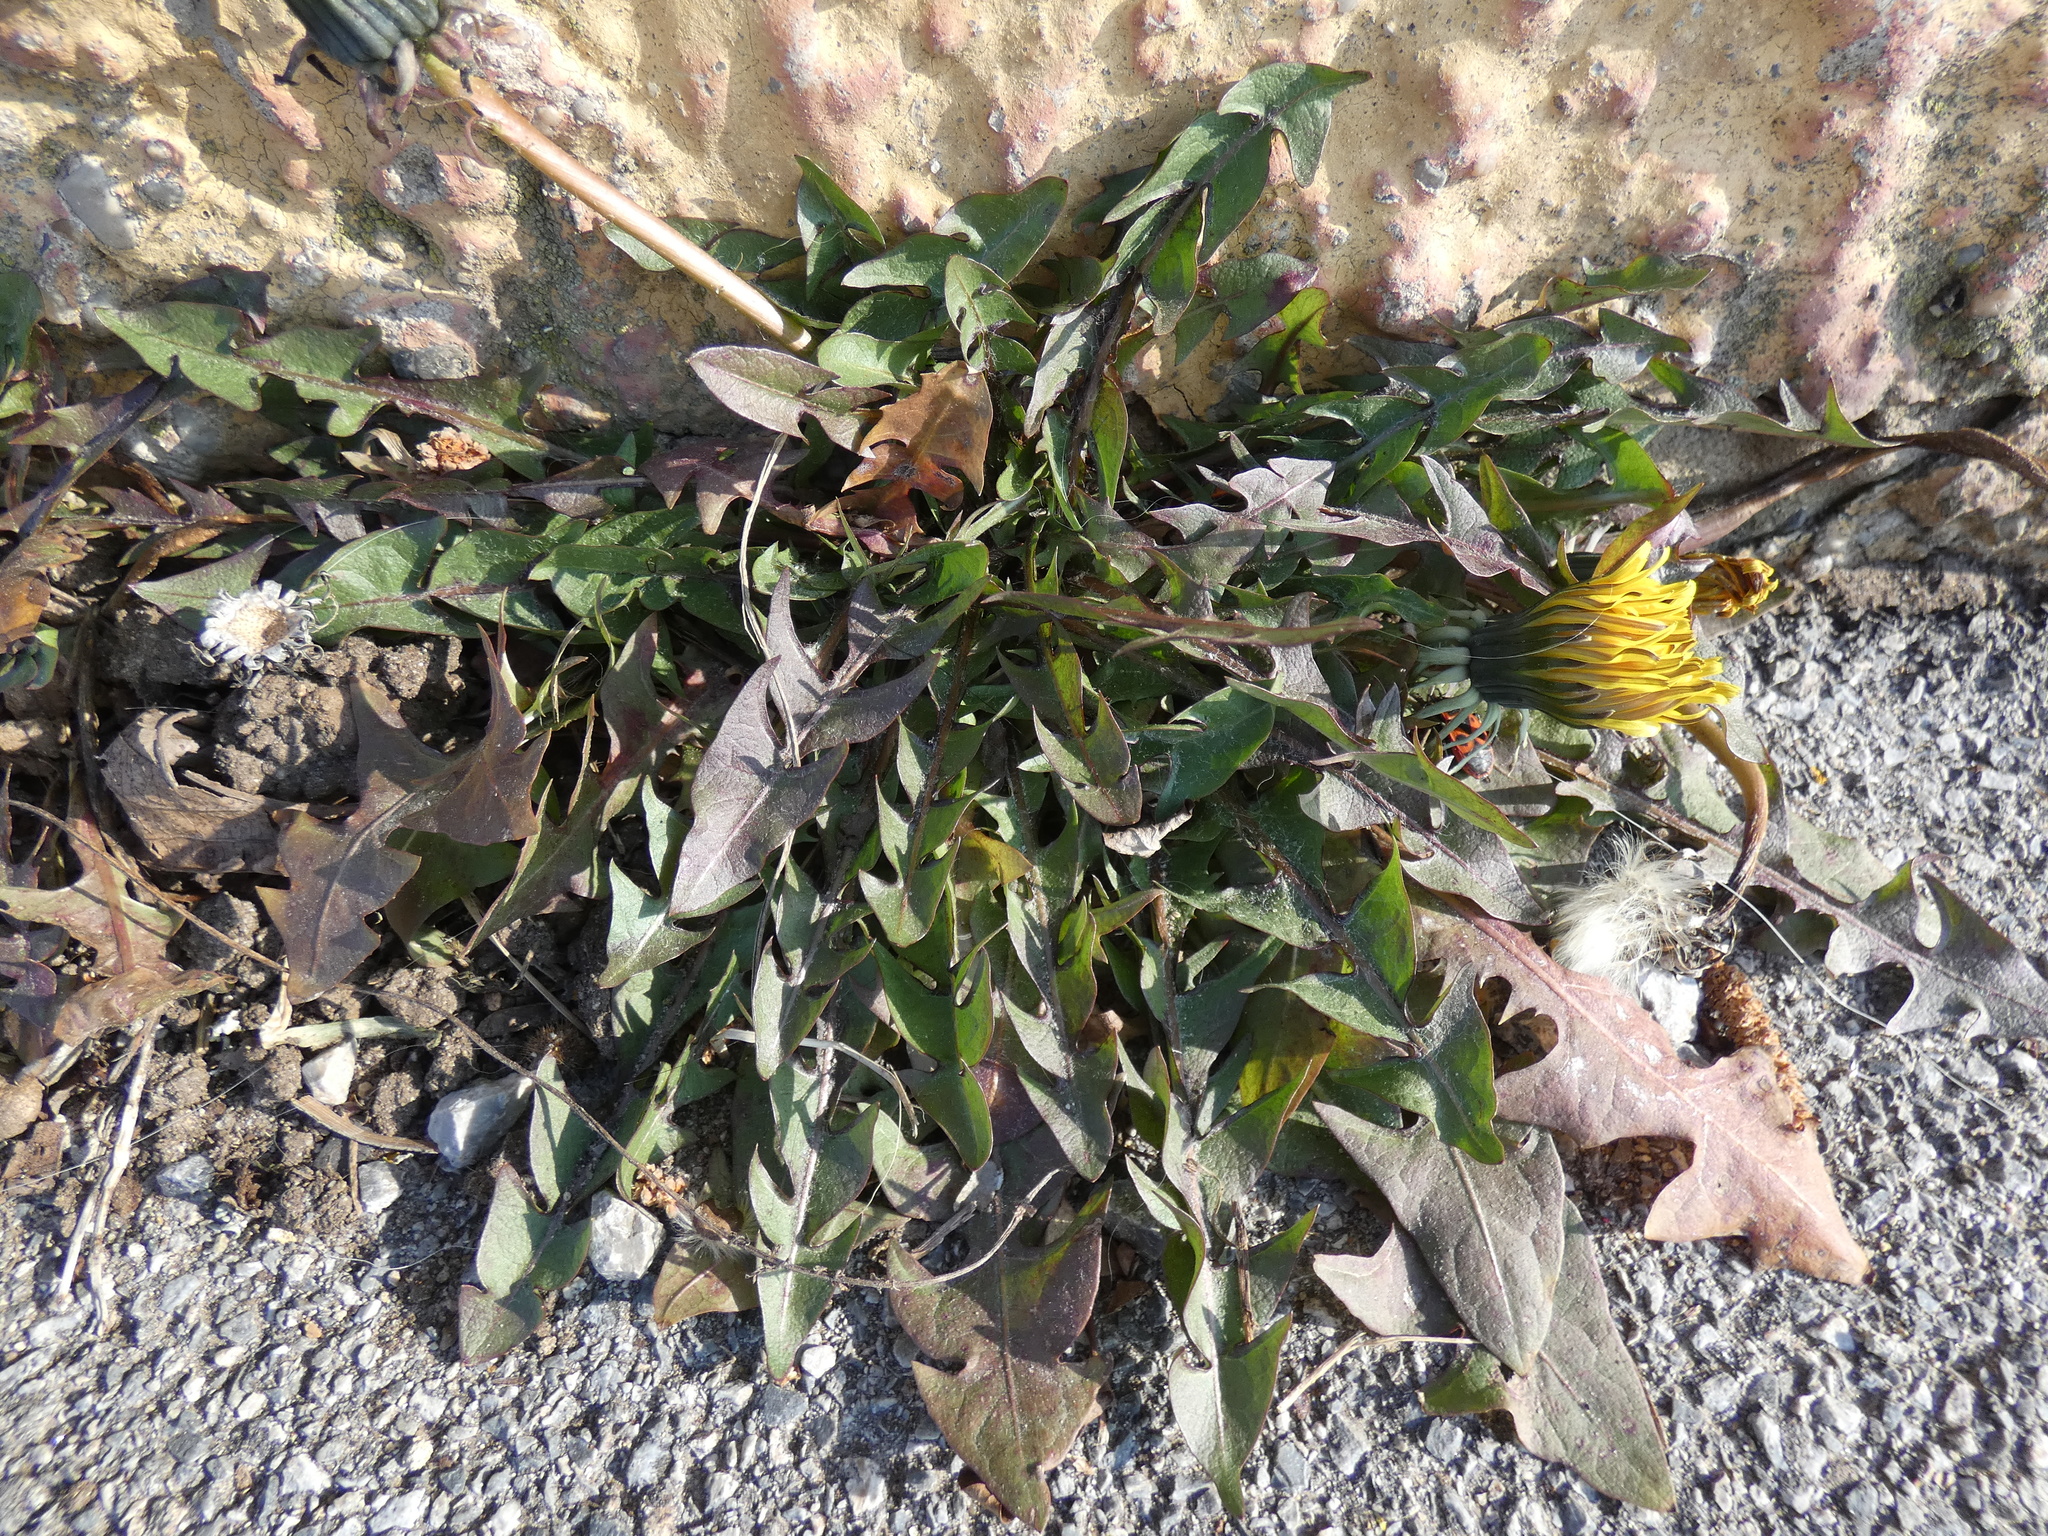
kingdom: Plantae
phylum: Tracheophyta
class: Magnoliopsida
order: Asterales
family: Asteraceae
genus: Taraxacum
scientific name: Taraxacum
